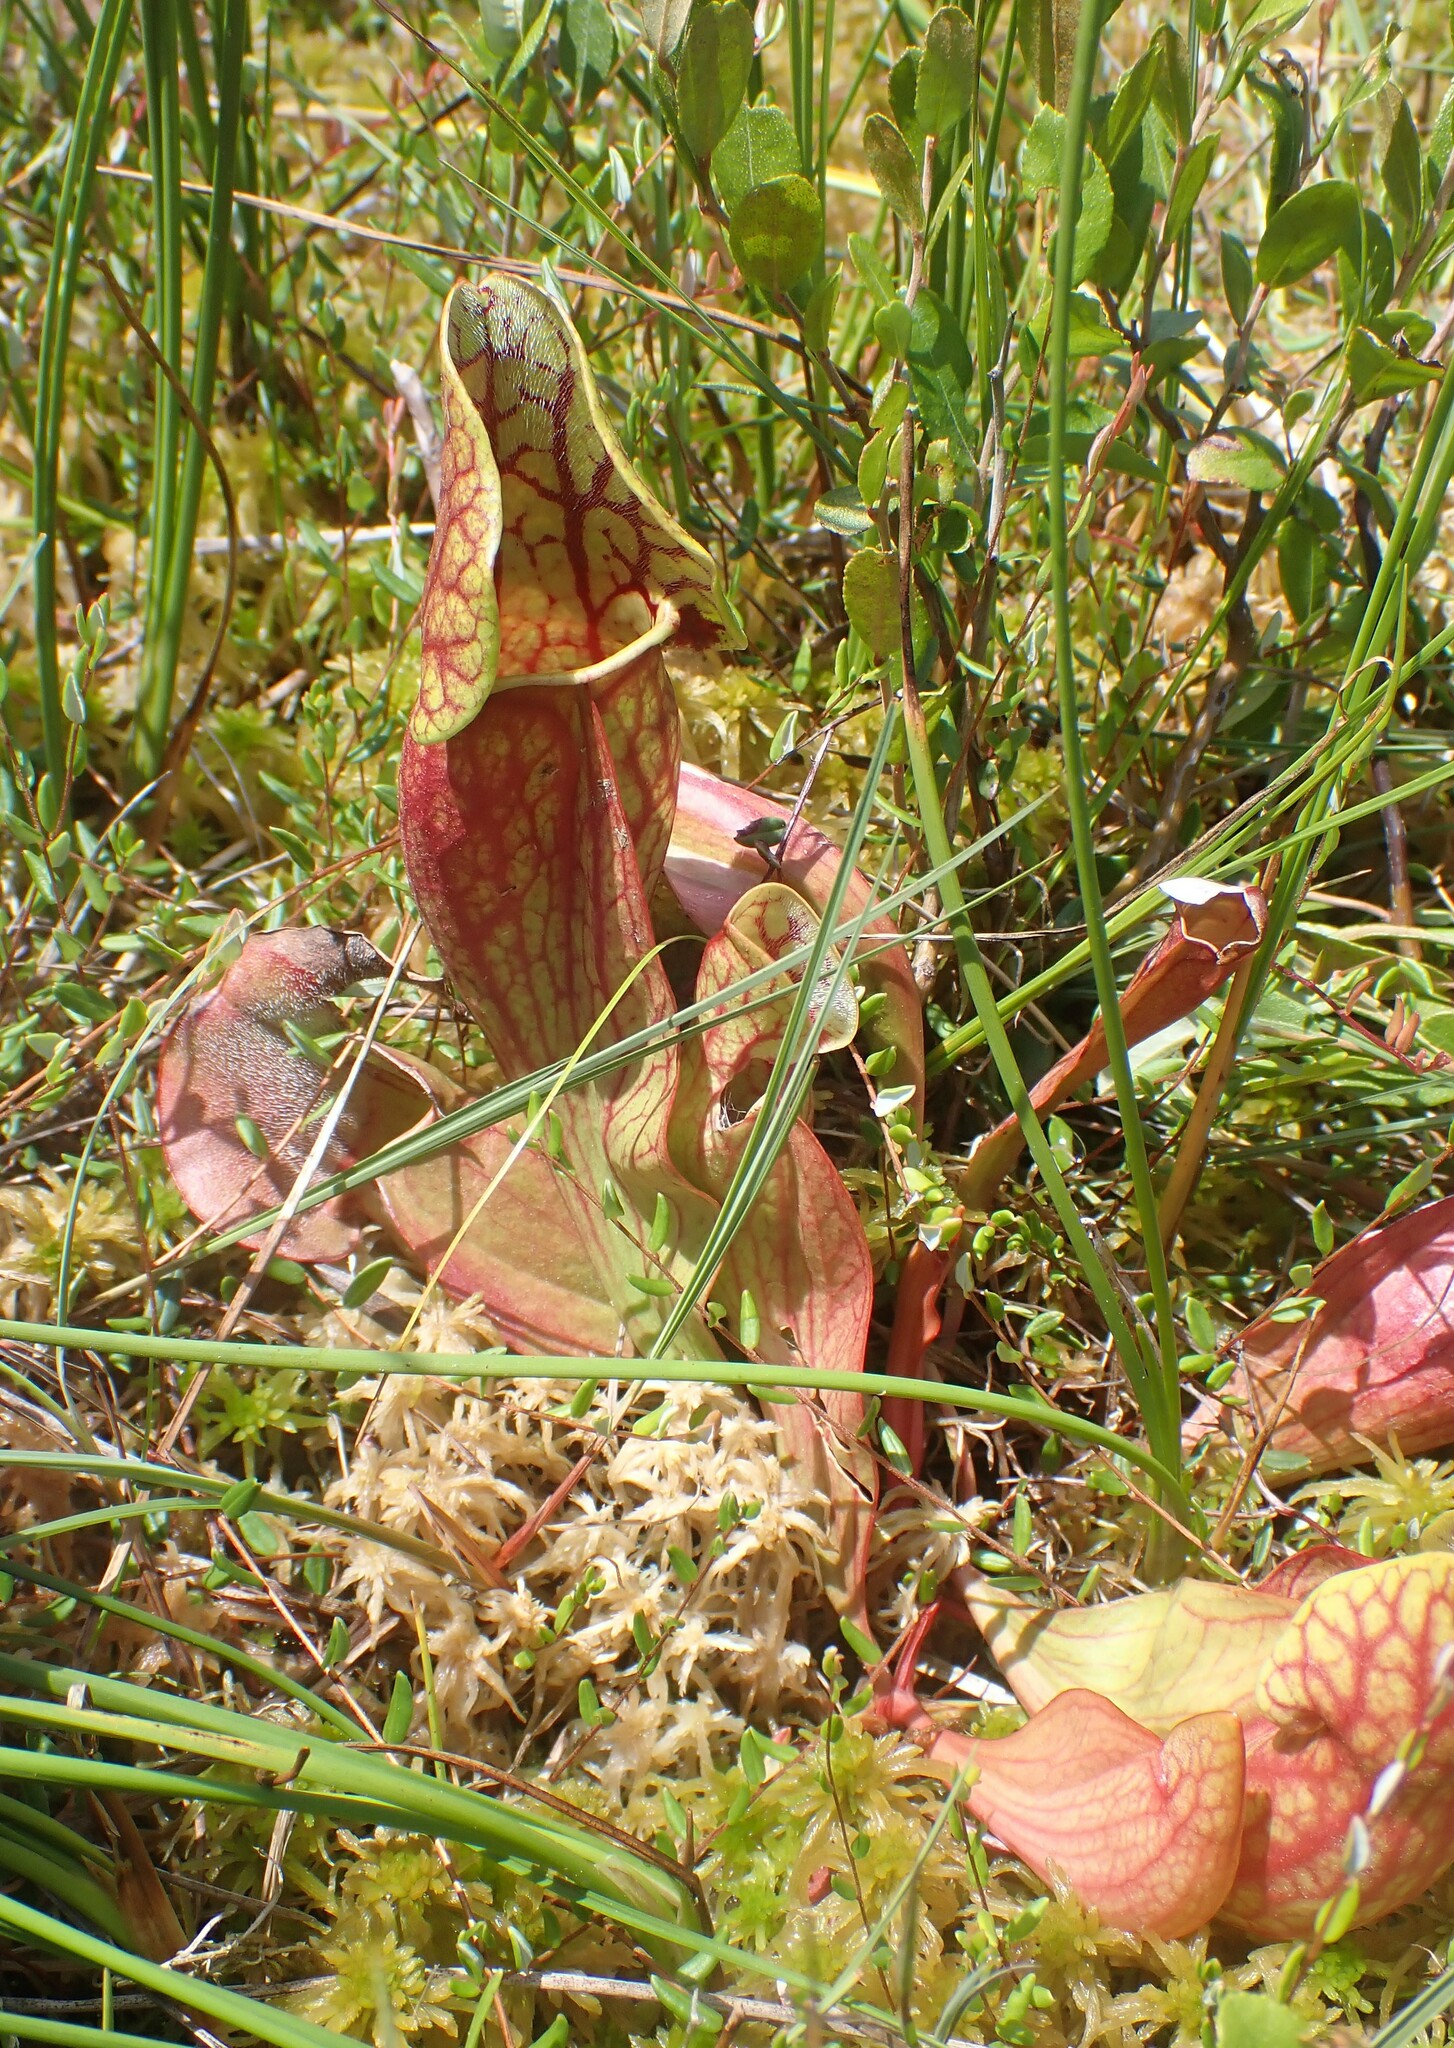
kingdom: Plantae
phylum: Tracheophyta
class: Magnoliopsida
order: Ericales
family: Sarraceniaceae
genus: Sarracenia
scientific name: Sarracenia purpurea
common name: Pitcherplant
